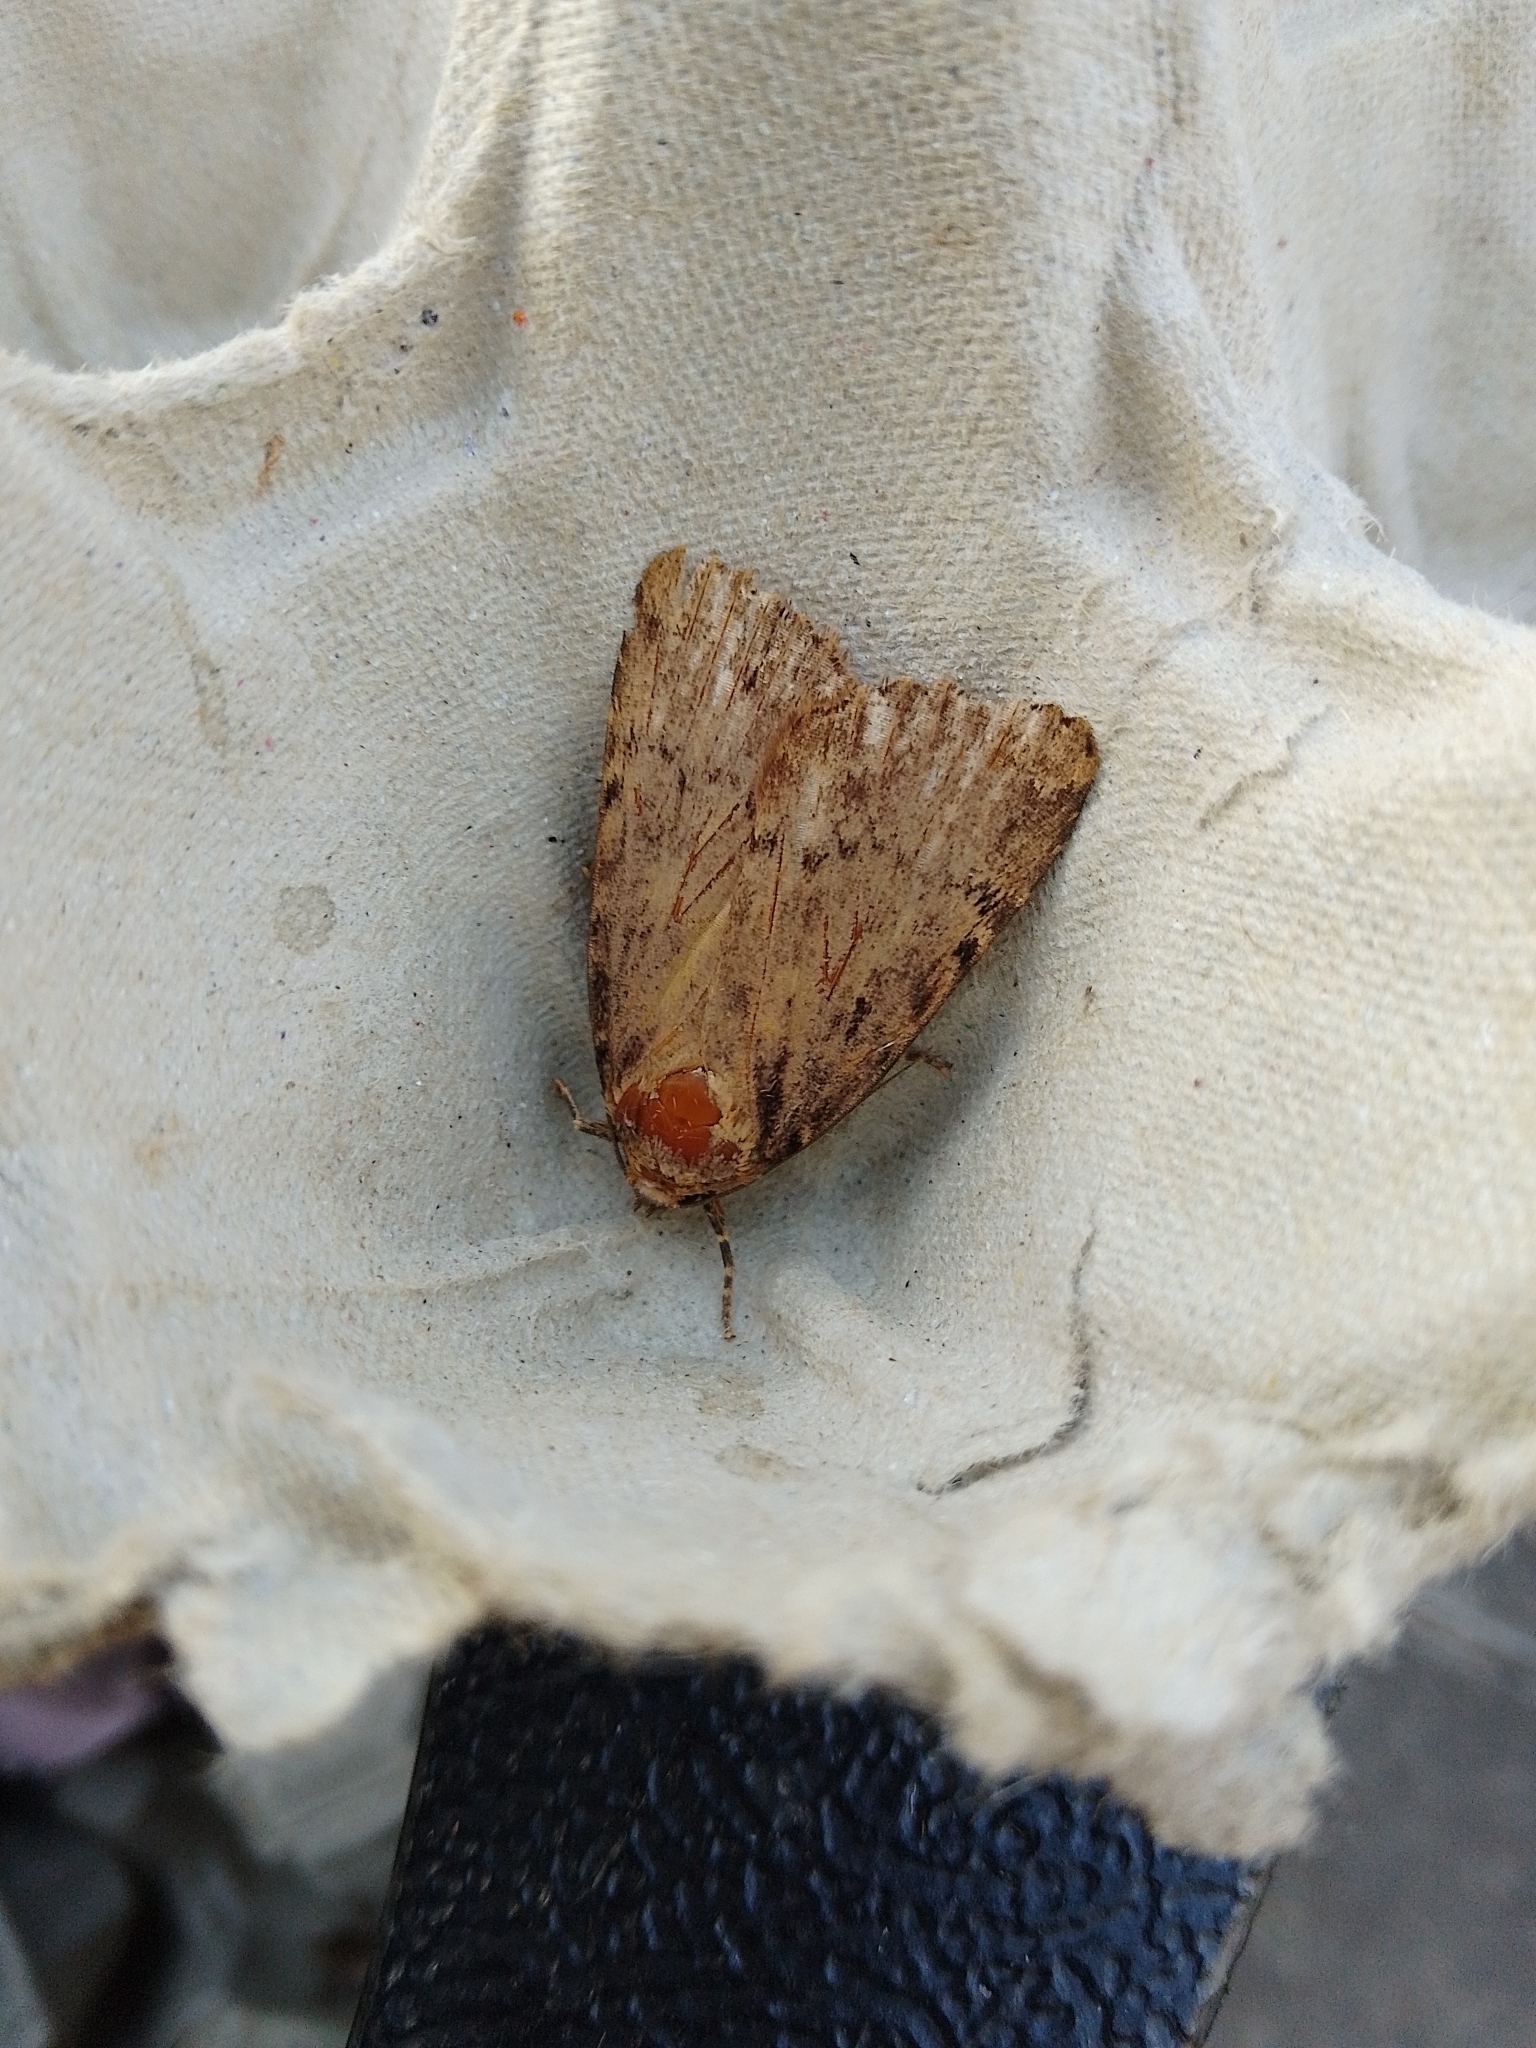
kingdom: Animalia
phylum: Arthropoda
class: Insecta
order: Lepidoptera
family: Noctuidae
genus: Amphipyra
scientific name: Amphipyra
